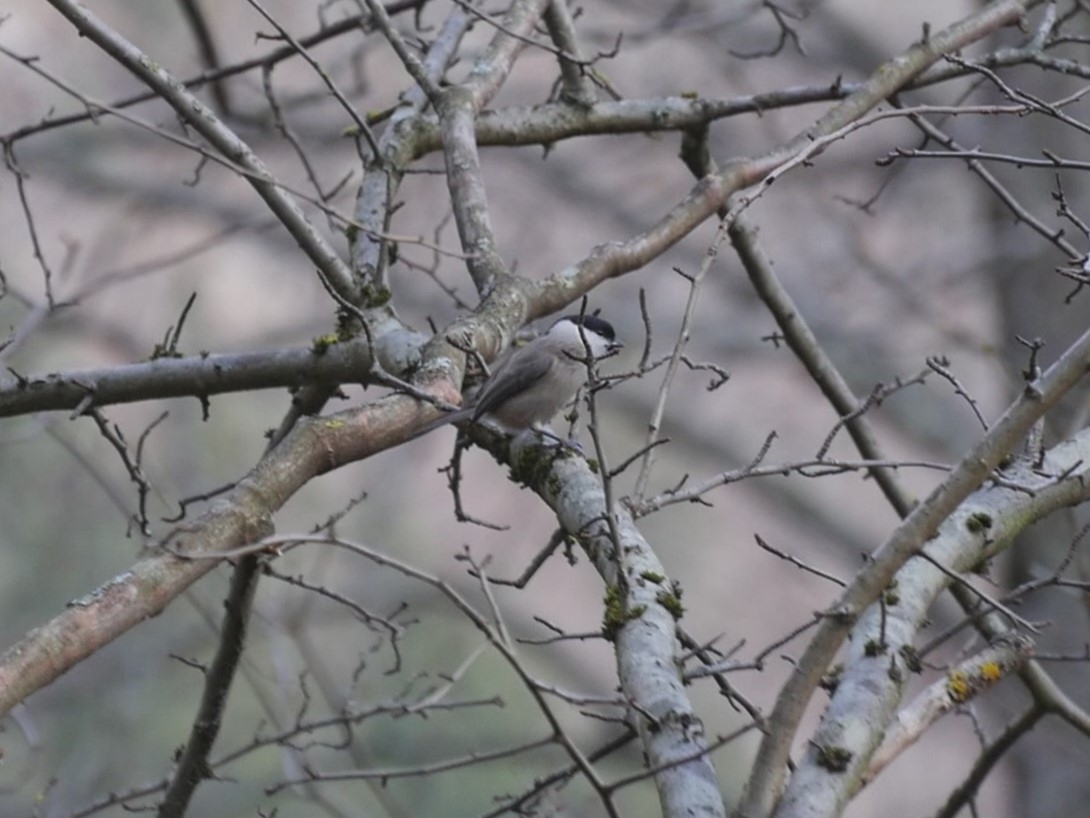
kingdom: Animalia
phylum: Chordata
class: Aves
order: Passeriformes
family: Paridae
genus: Poecile
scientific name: Poecile palustris
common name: Marsh tit
